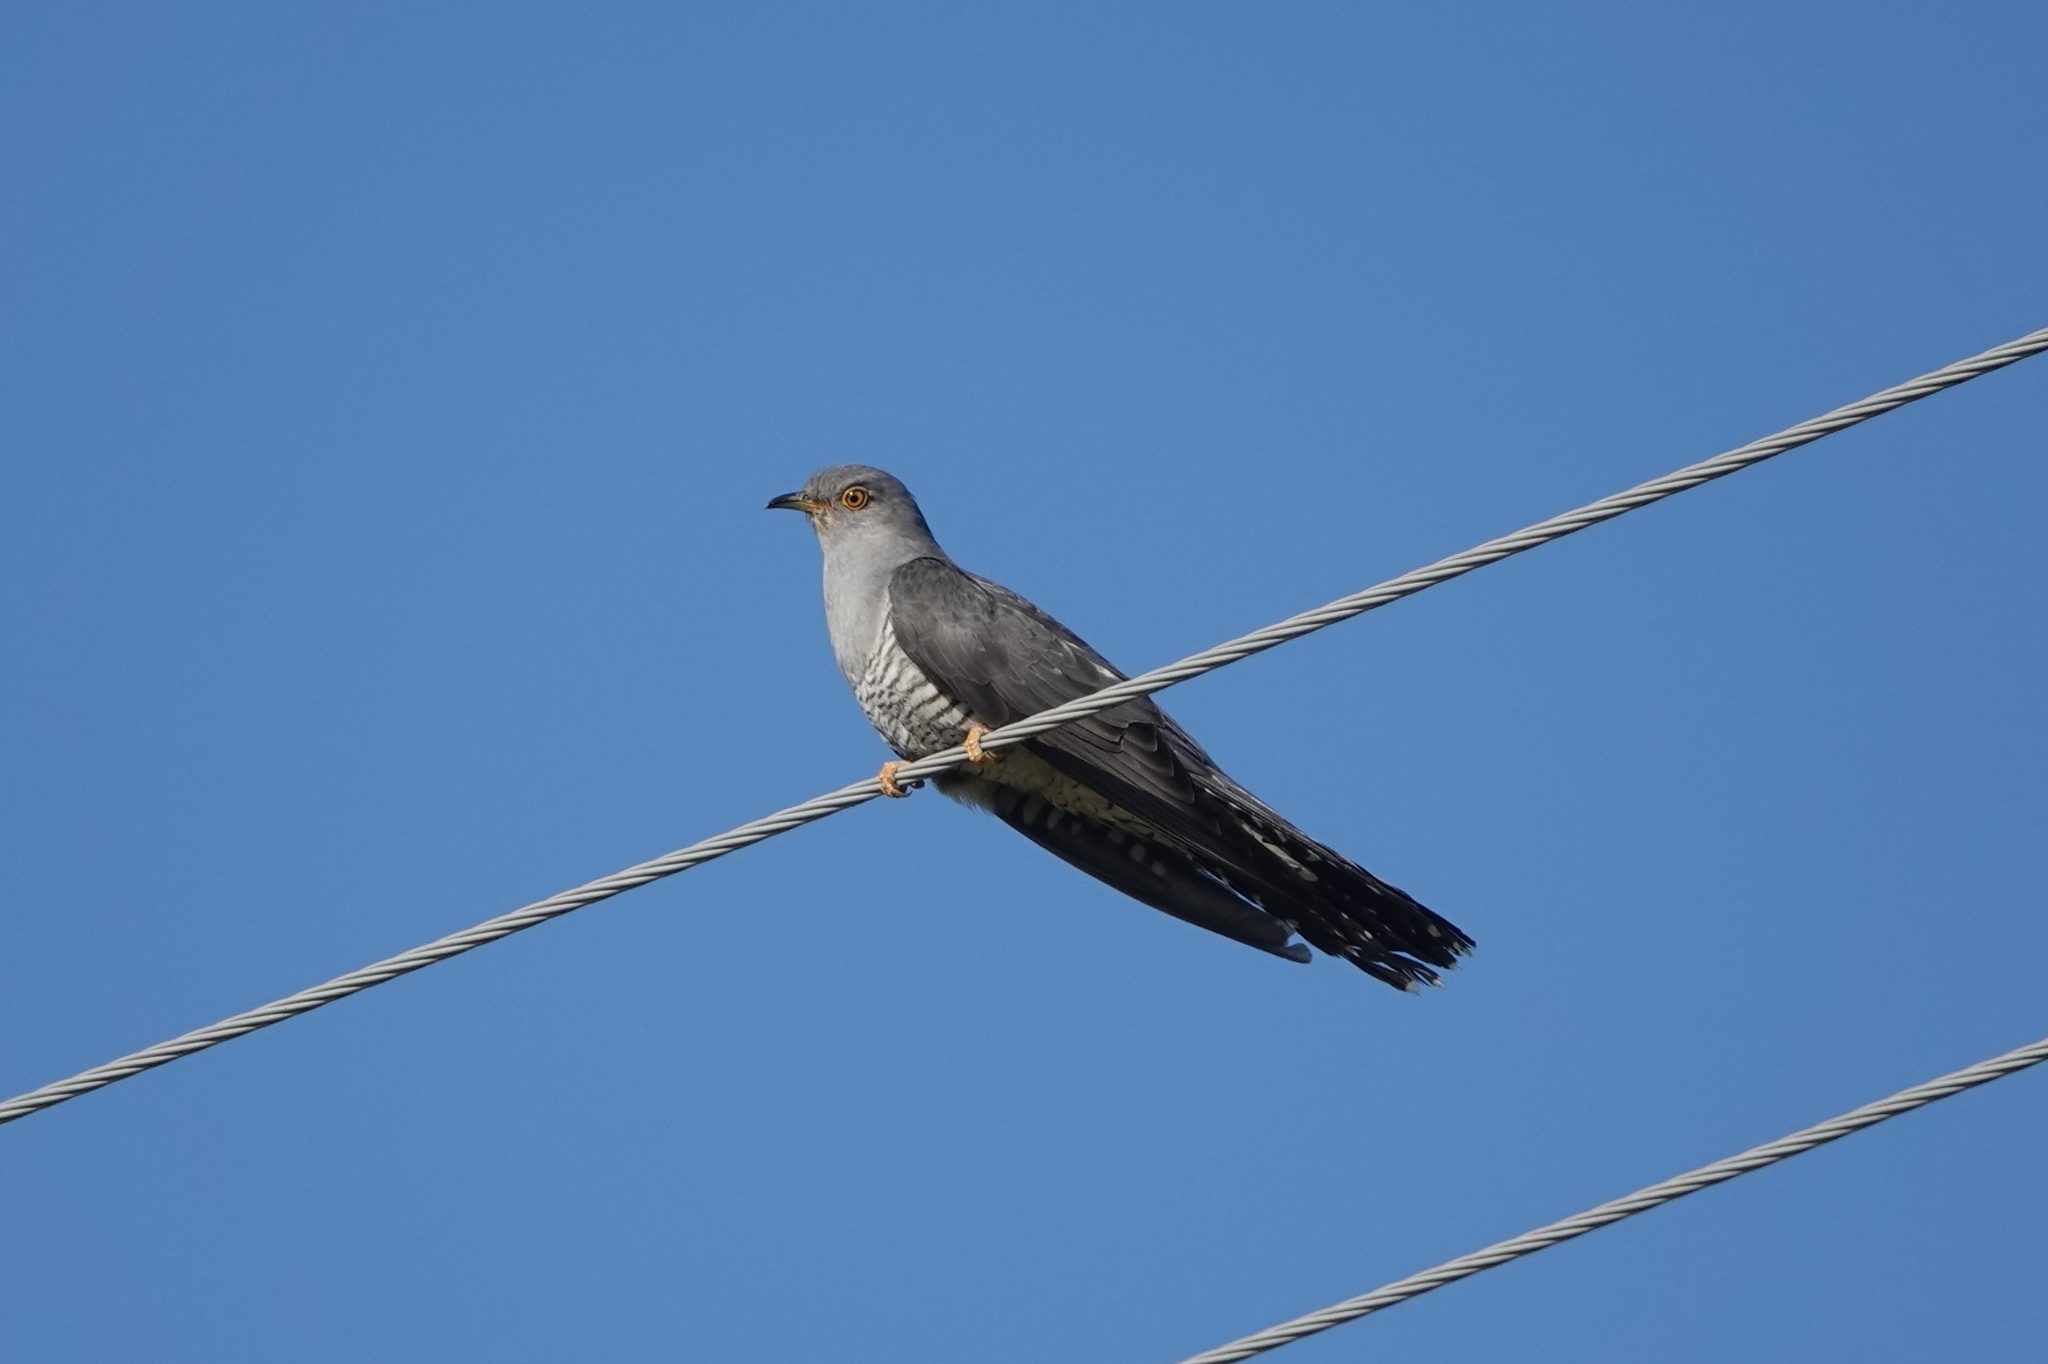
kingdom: Animalia
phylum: Chordata
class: Aves
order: Cuculiformes
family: Cuculidae
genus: Cuculus
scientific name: Cuculus canorus
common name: Common cuckoo
